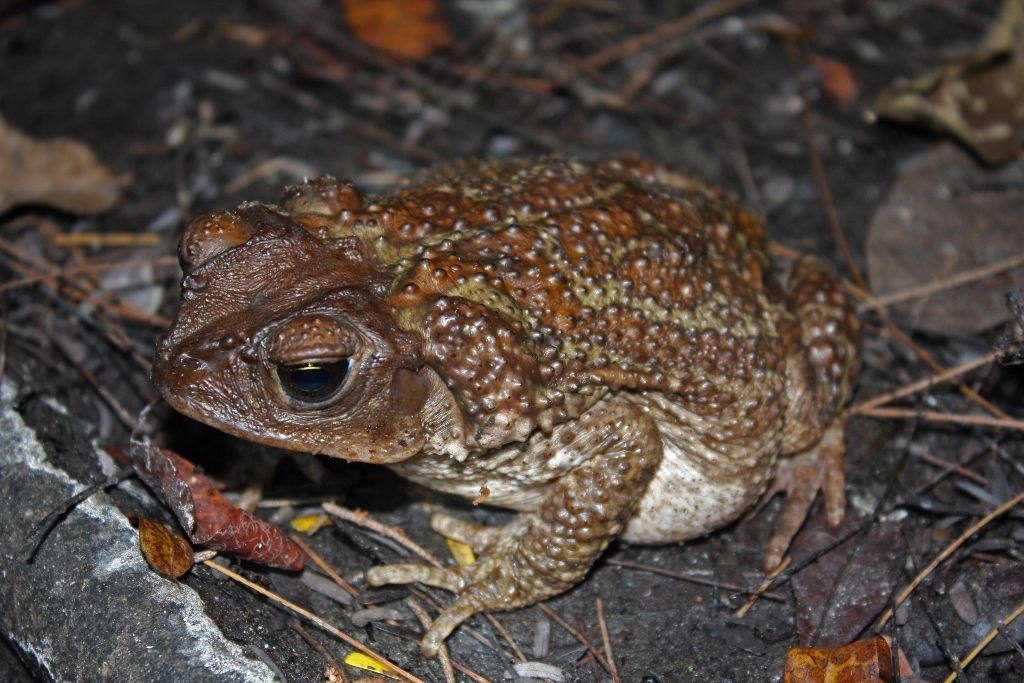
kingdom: Animalia
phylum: Chordata
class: Amphibia
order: Anura
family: Bufonidae
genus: Peltophryne
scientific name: Peltophryne peltocephala
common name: Eastern cuba giant toad
